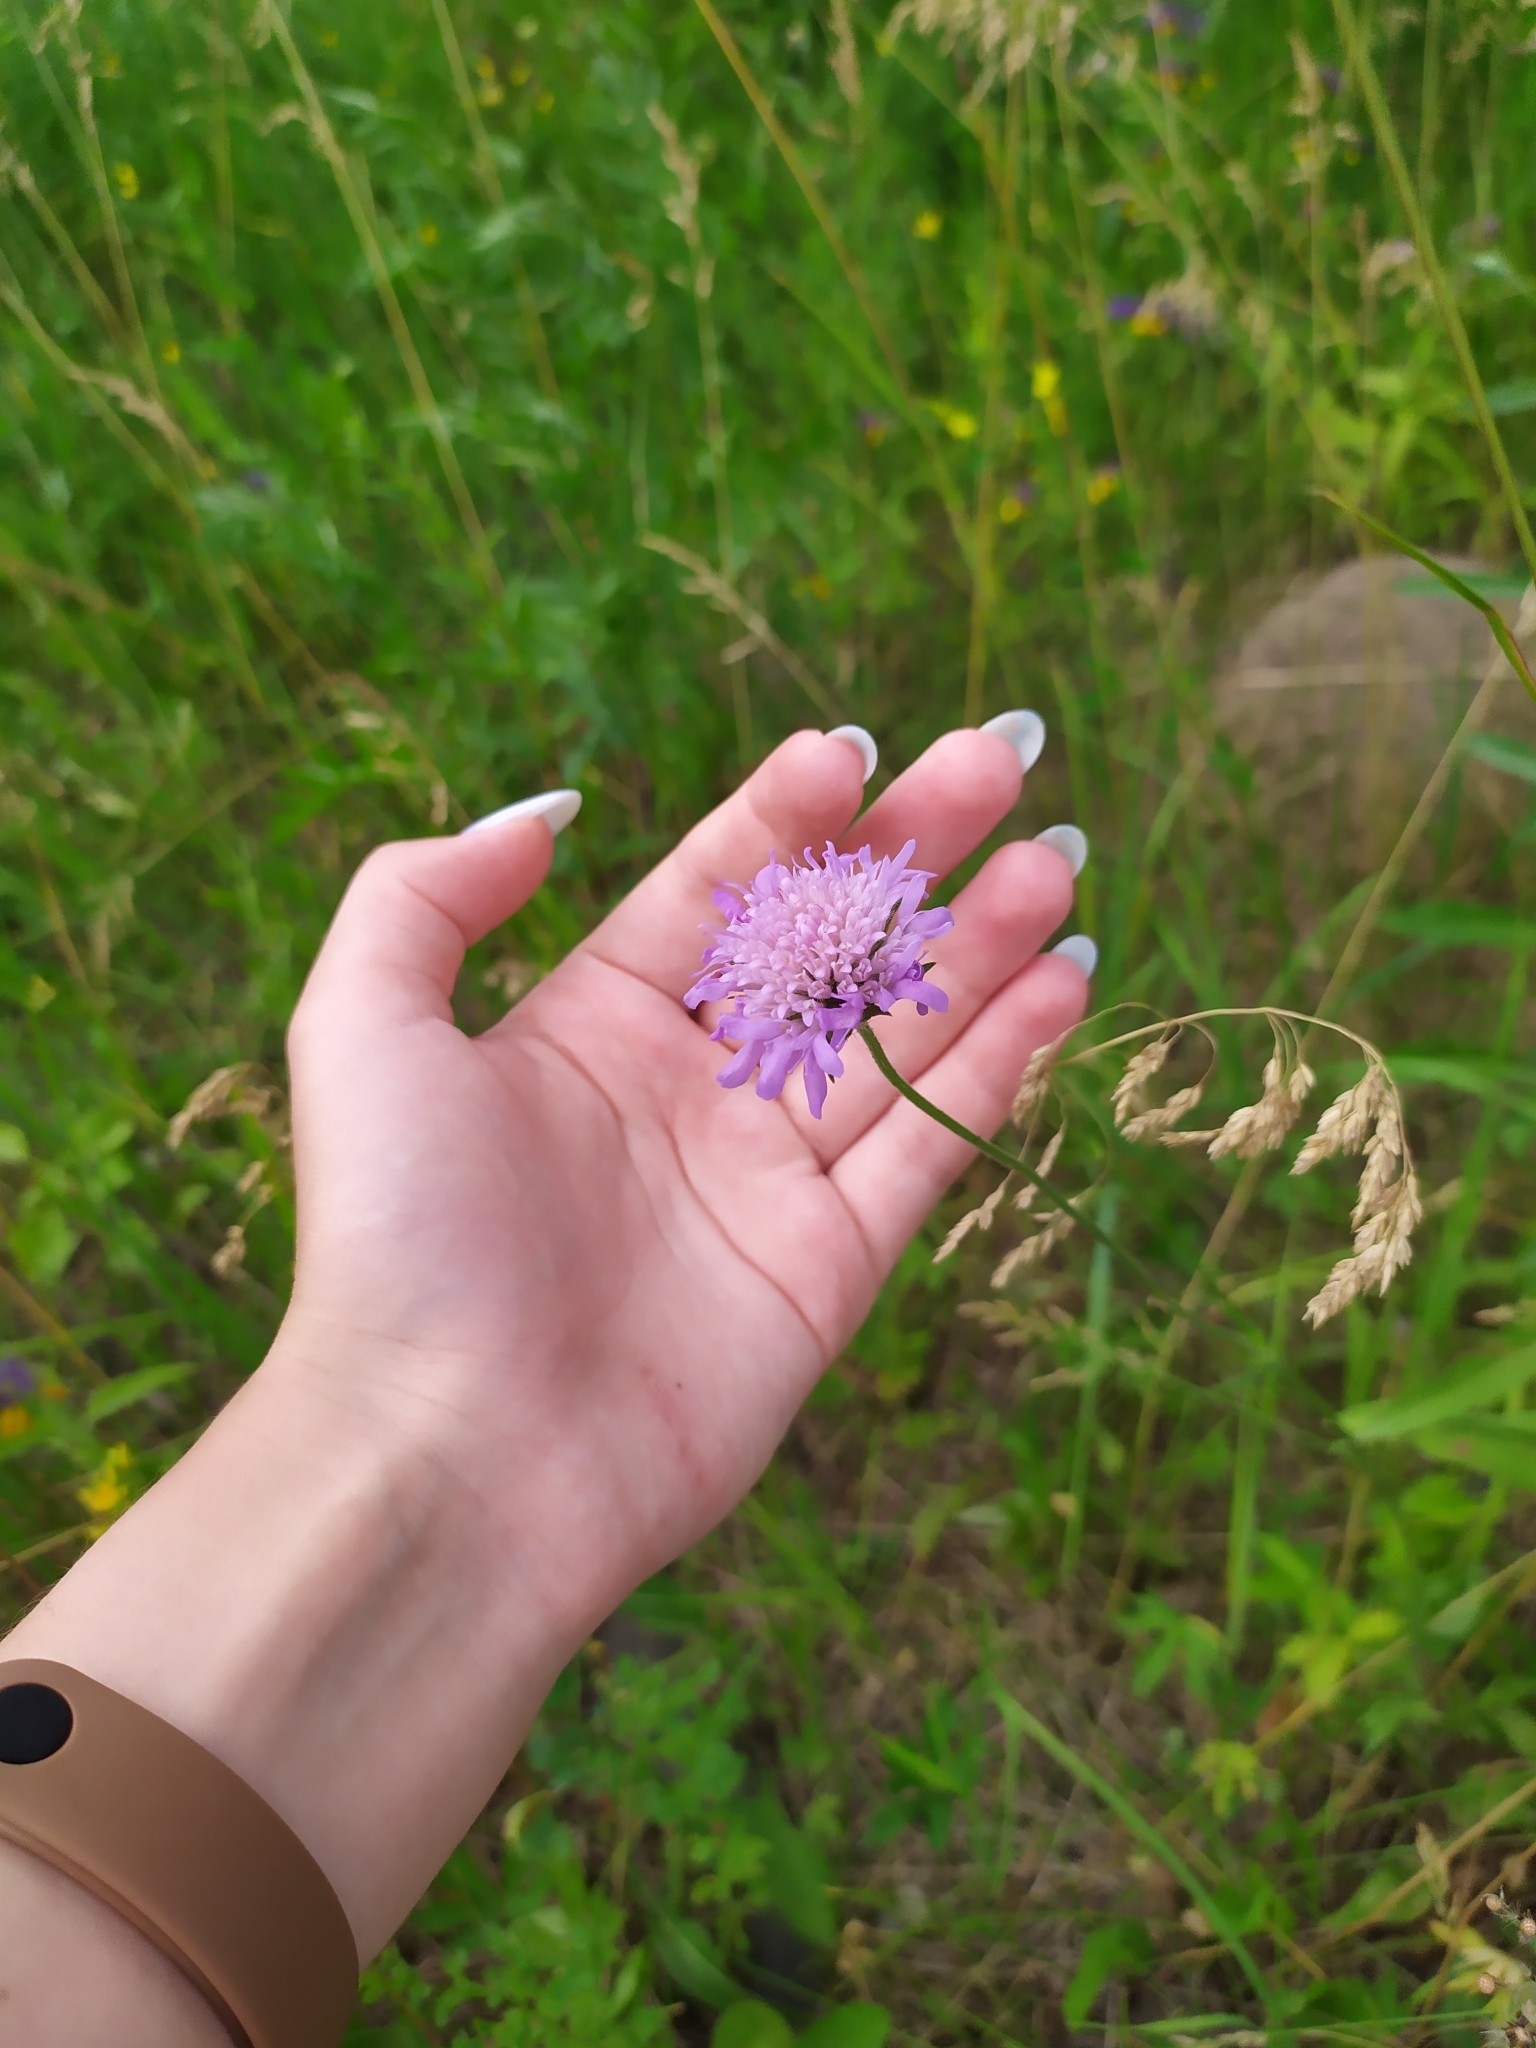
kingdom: Plantae
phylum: Tracheophyta
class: Magnoliopsida
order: Dipsacales
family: Caprifoliaceae
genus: Knautia
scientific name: Knautia arvensis
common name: Field scabiosa
